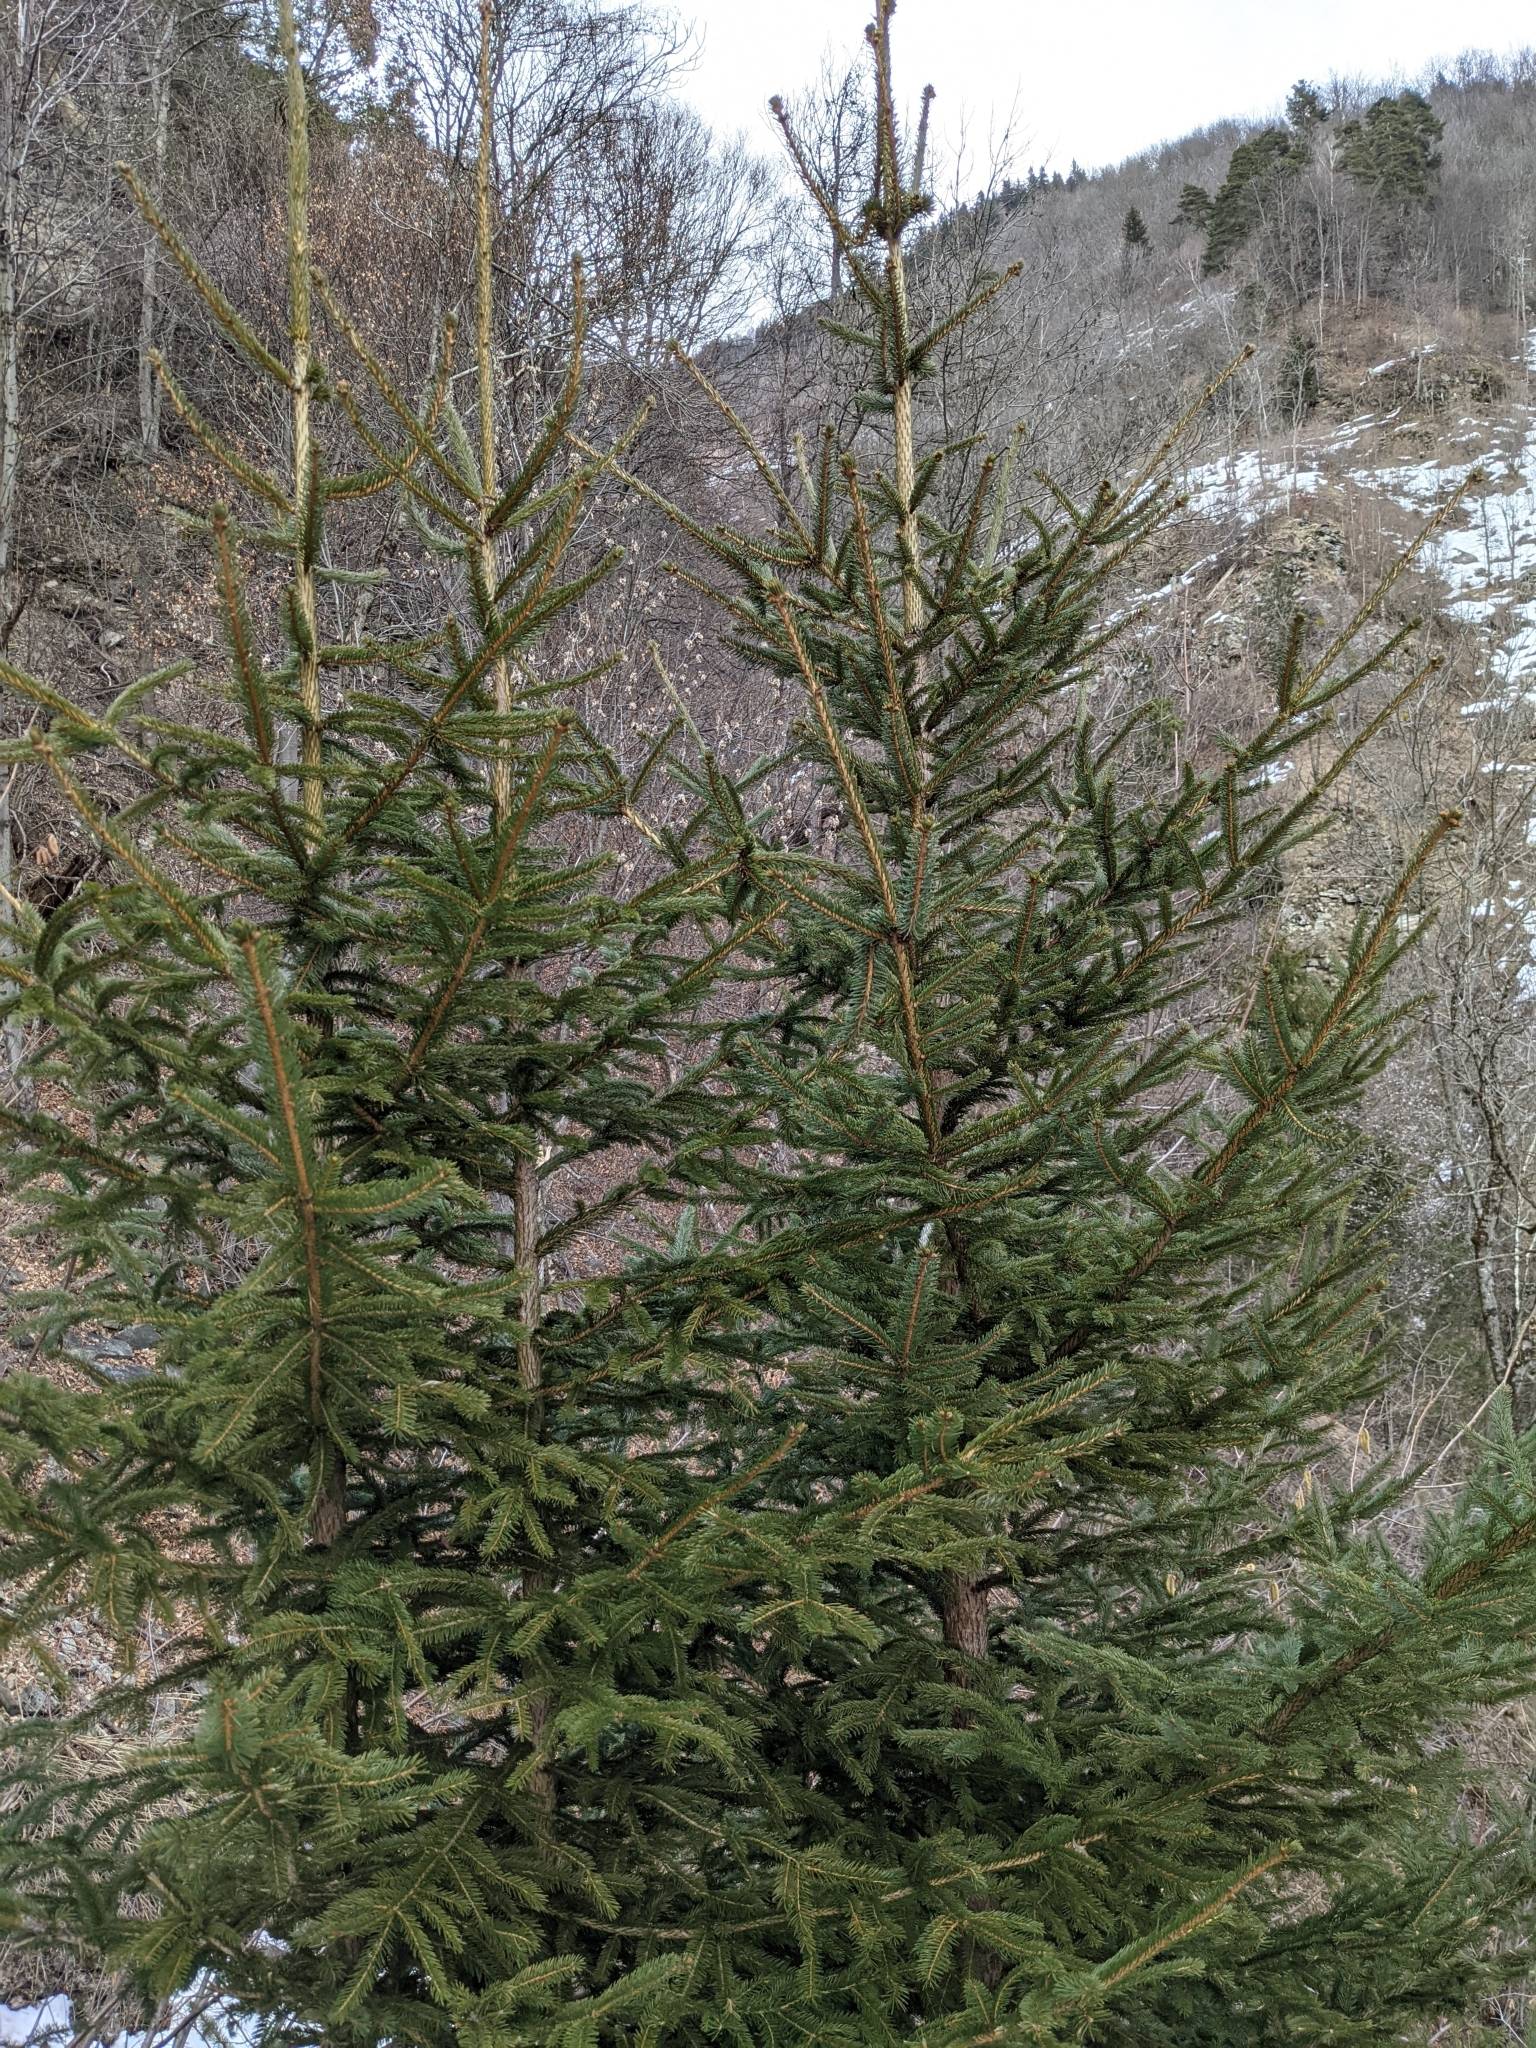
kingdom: Plantae
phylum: Tracheophyta
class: Pinopsida
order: Pinales
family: Pinaceae
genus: Picea
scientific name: Picea abies
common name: Norway spruce
